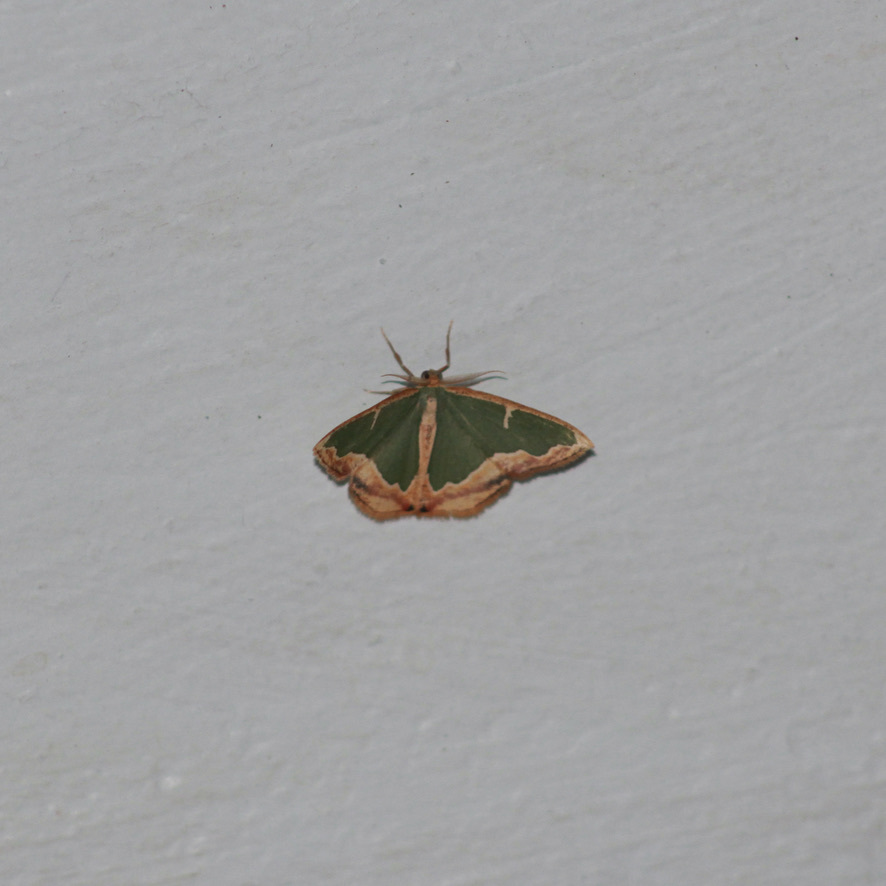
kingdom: Animalia
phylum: Arthropoda
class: Insecta
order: Lepidoptera
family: Geometridae
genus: Oospila
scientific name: Oospila venezuelata
